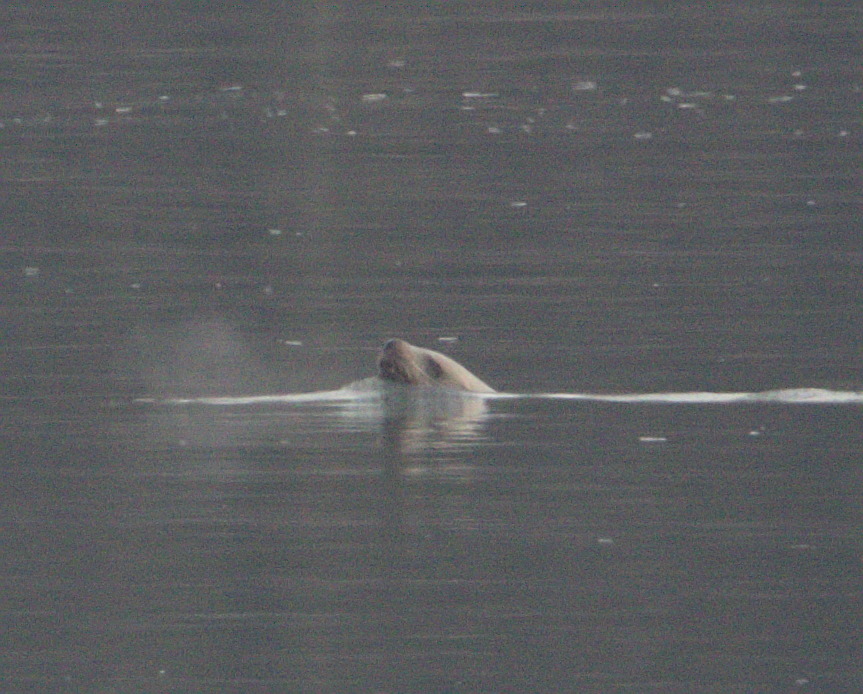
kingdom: Animalia
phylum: Chordata
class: Mammalia
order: Carnivora
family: Otariidae
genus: Eumetopias
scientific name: Eumetopias jubatus
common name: Steller sea lion
